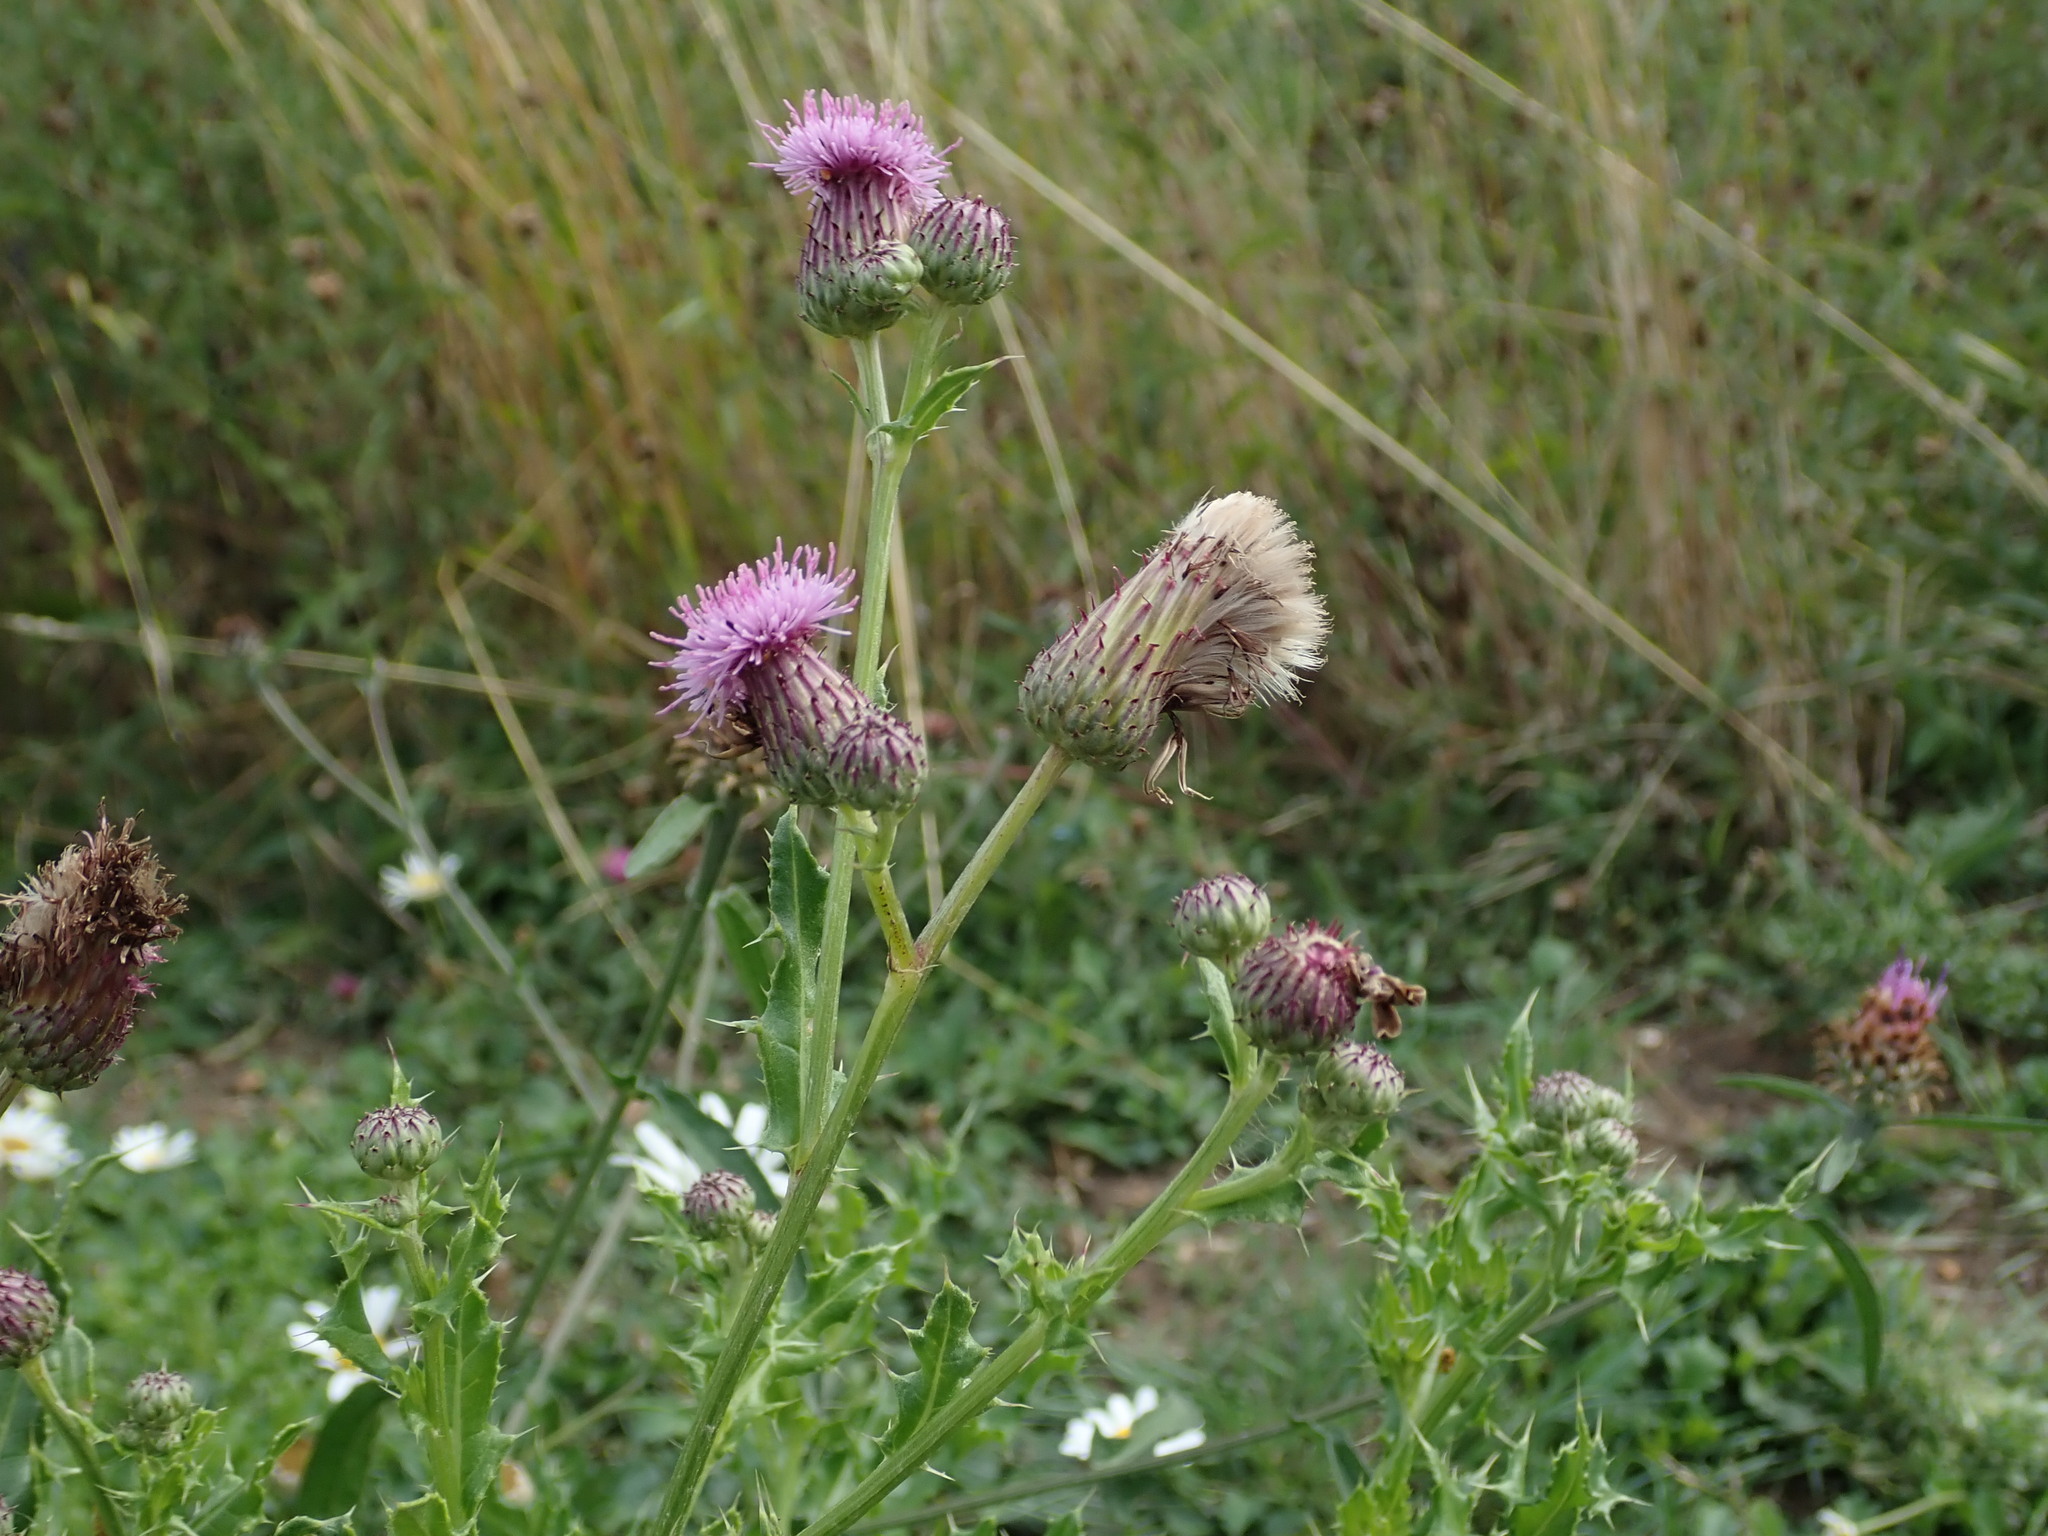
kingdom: Plantae
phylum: Tracheophyta
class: Magnoliopsida
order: Asterales
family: Asteraceae
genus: Cirsium
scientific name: Cirsium arvense
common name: Creeping thistle
